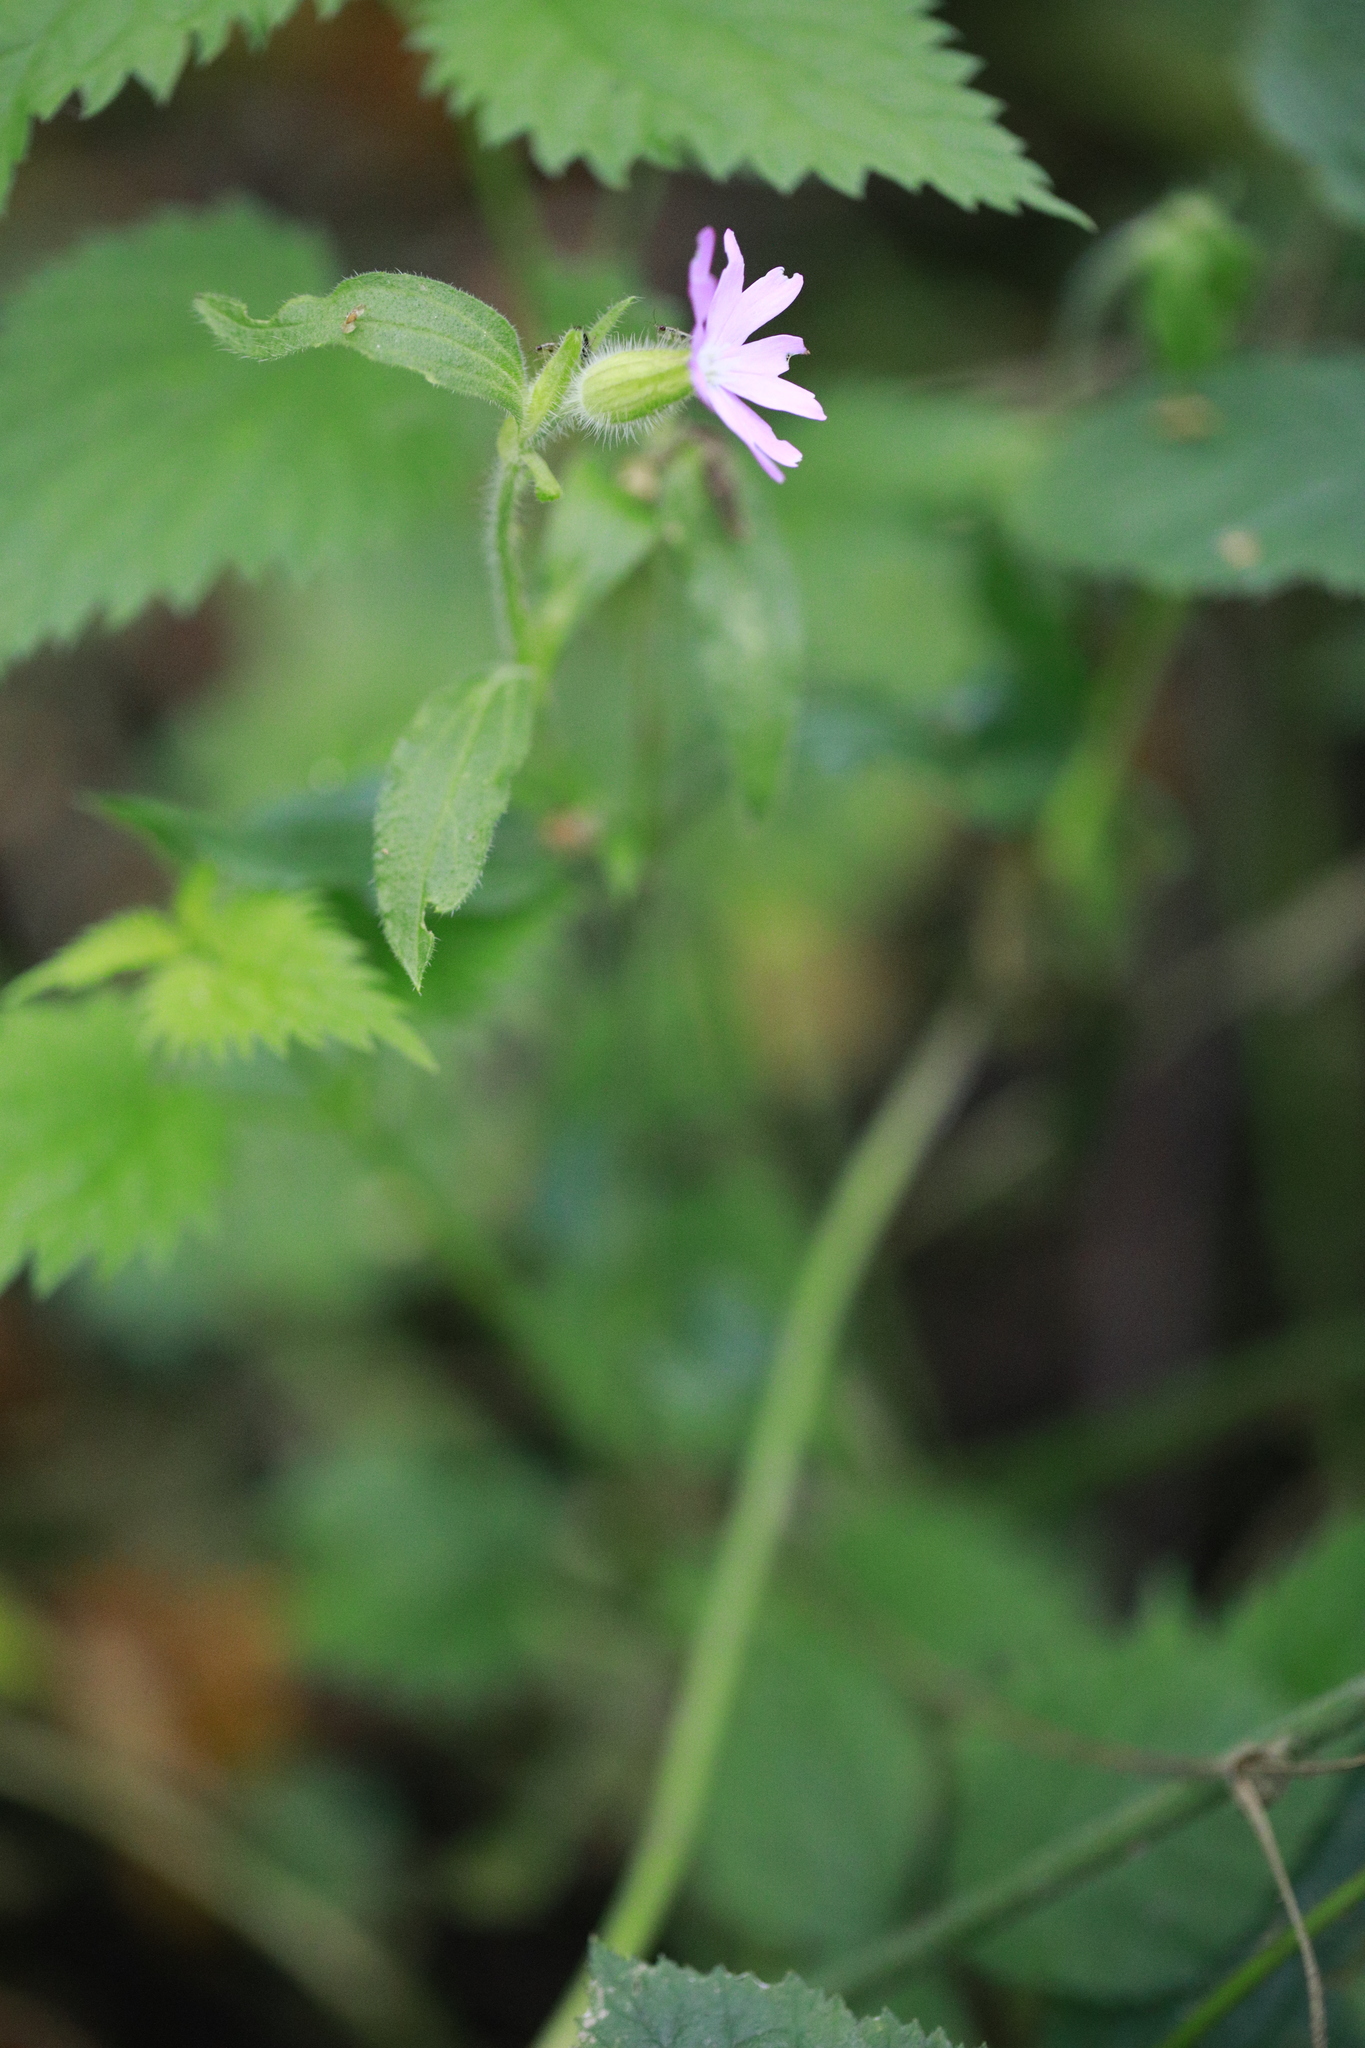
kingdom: Plantae
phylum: Tracheophyta
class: Magnoliopsida
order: Caryophyllales
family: Caryophyllaceae
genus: Silene
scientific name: Silene dioica
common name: Red campion
